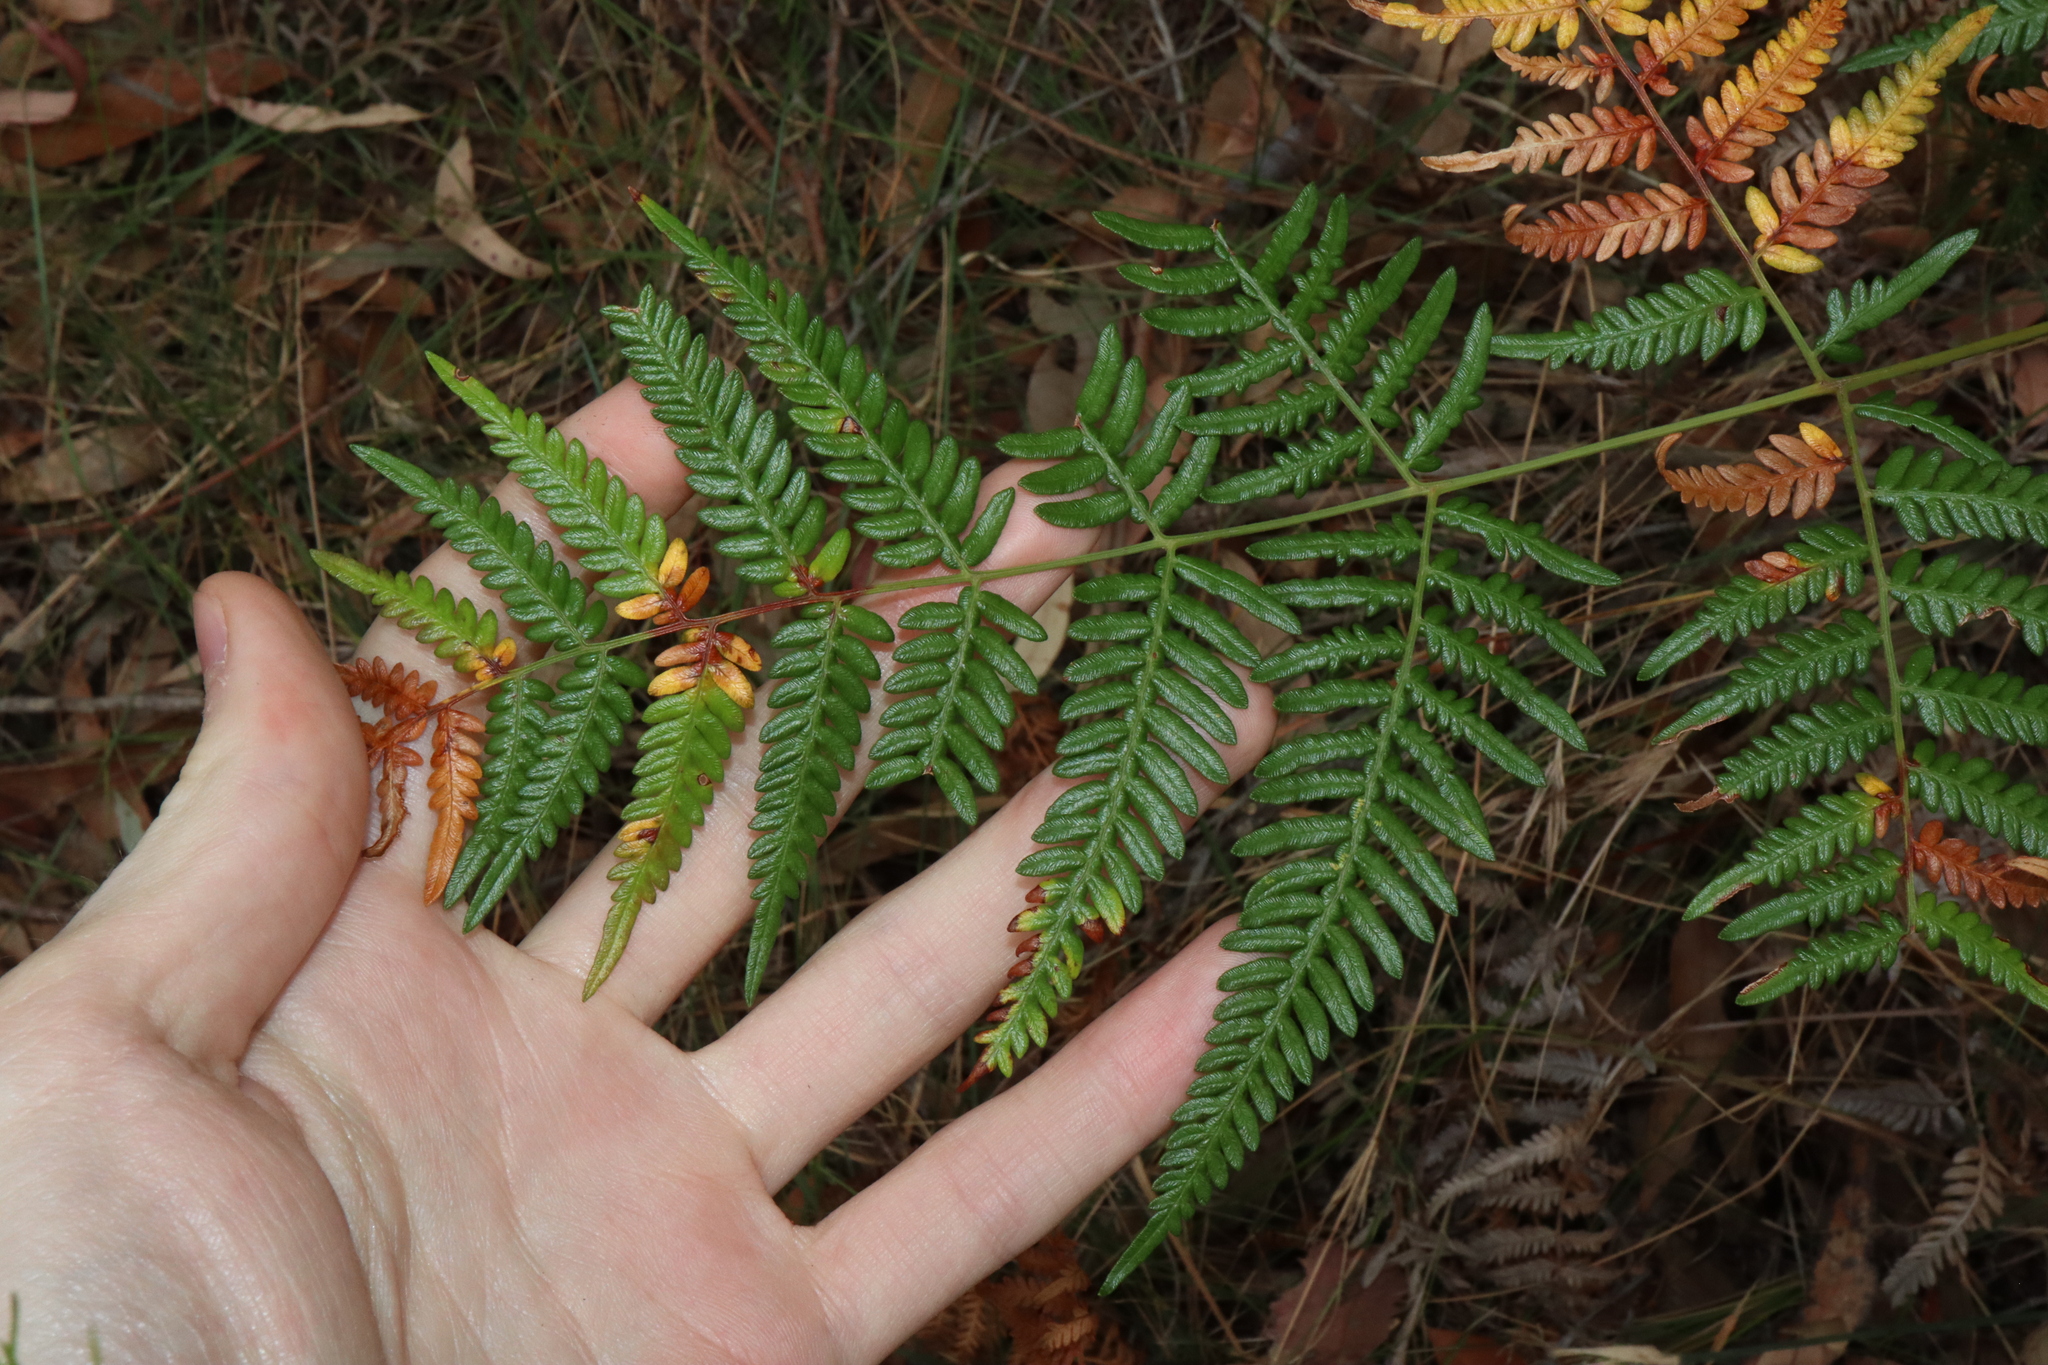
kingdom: Plantae
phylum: Tracheophyta
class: Polypodiopsida
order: Polypodiales
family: Dennstaedtiaceae
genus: Pteridium
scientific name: Pteridium esculentum
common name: Bracken fern
